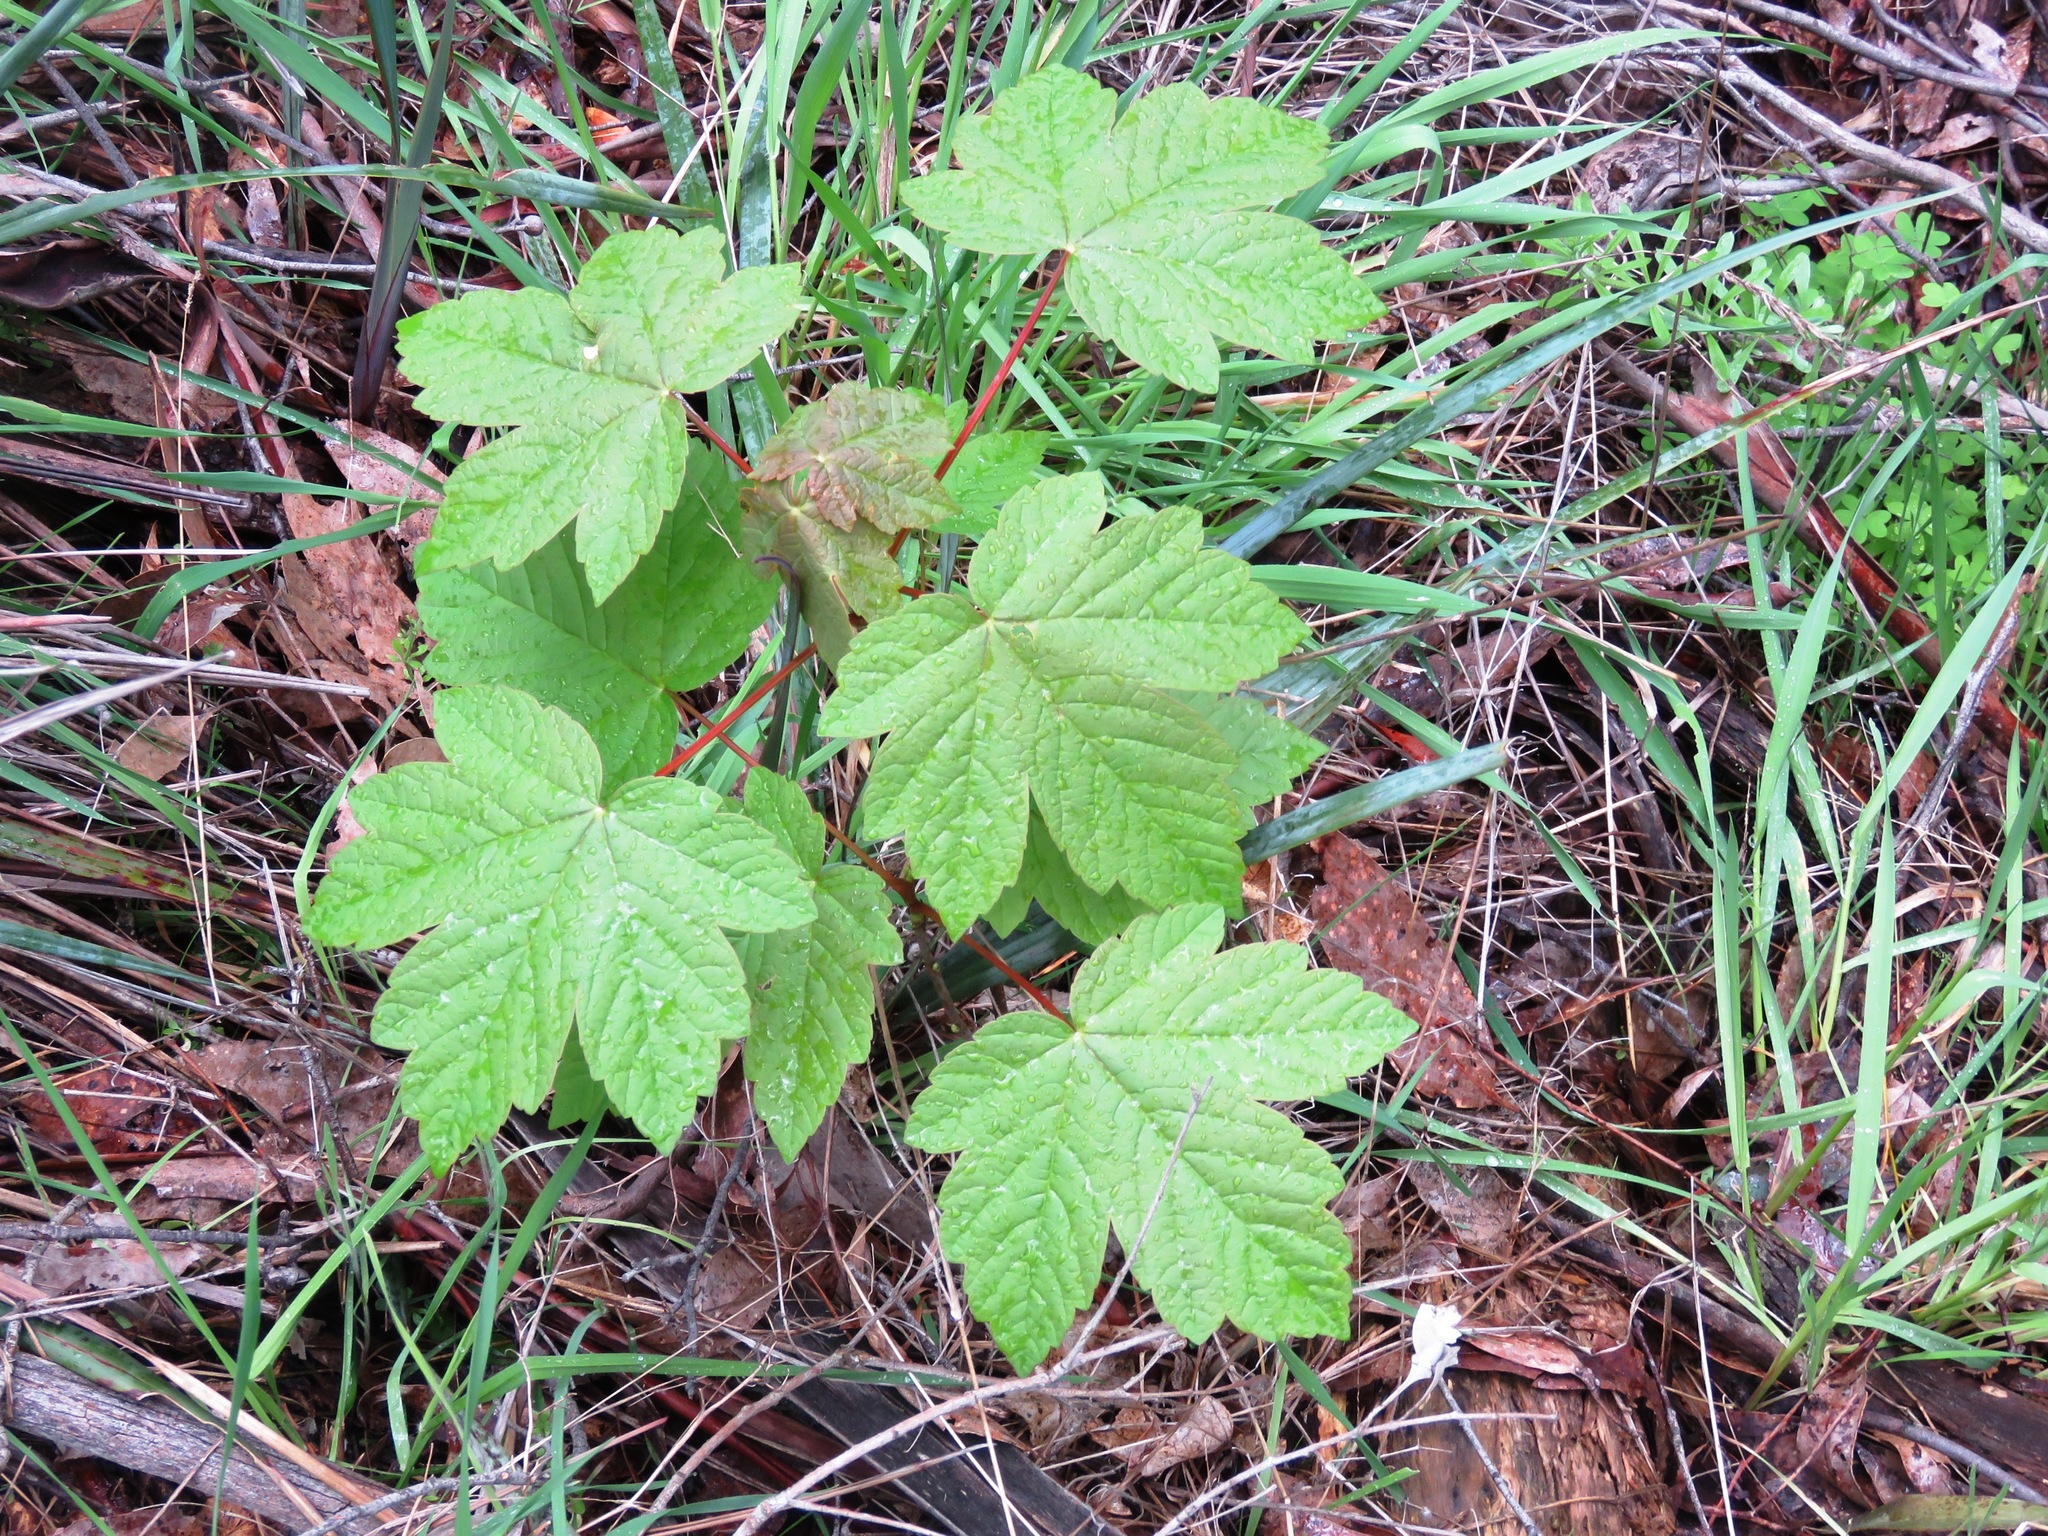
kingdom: Plantae
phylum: Tracheophyta
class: Magnoliopsida
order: Sapindales
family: Sapindaceae
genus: Acer
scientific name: Acer pseudoplatanus
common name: Sycamore
